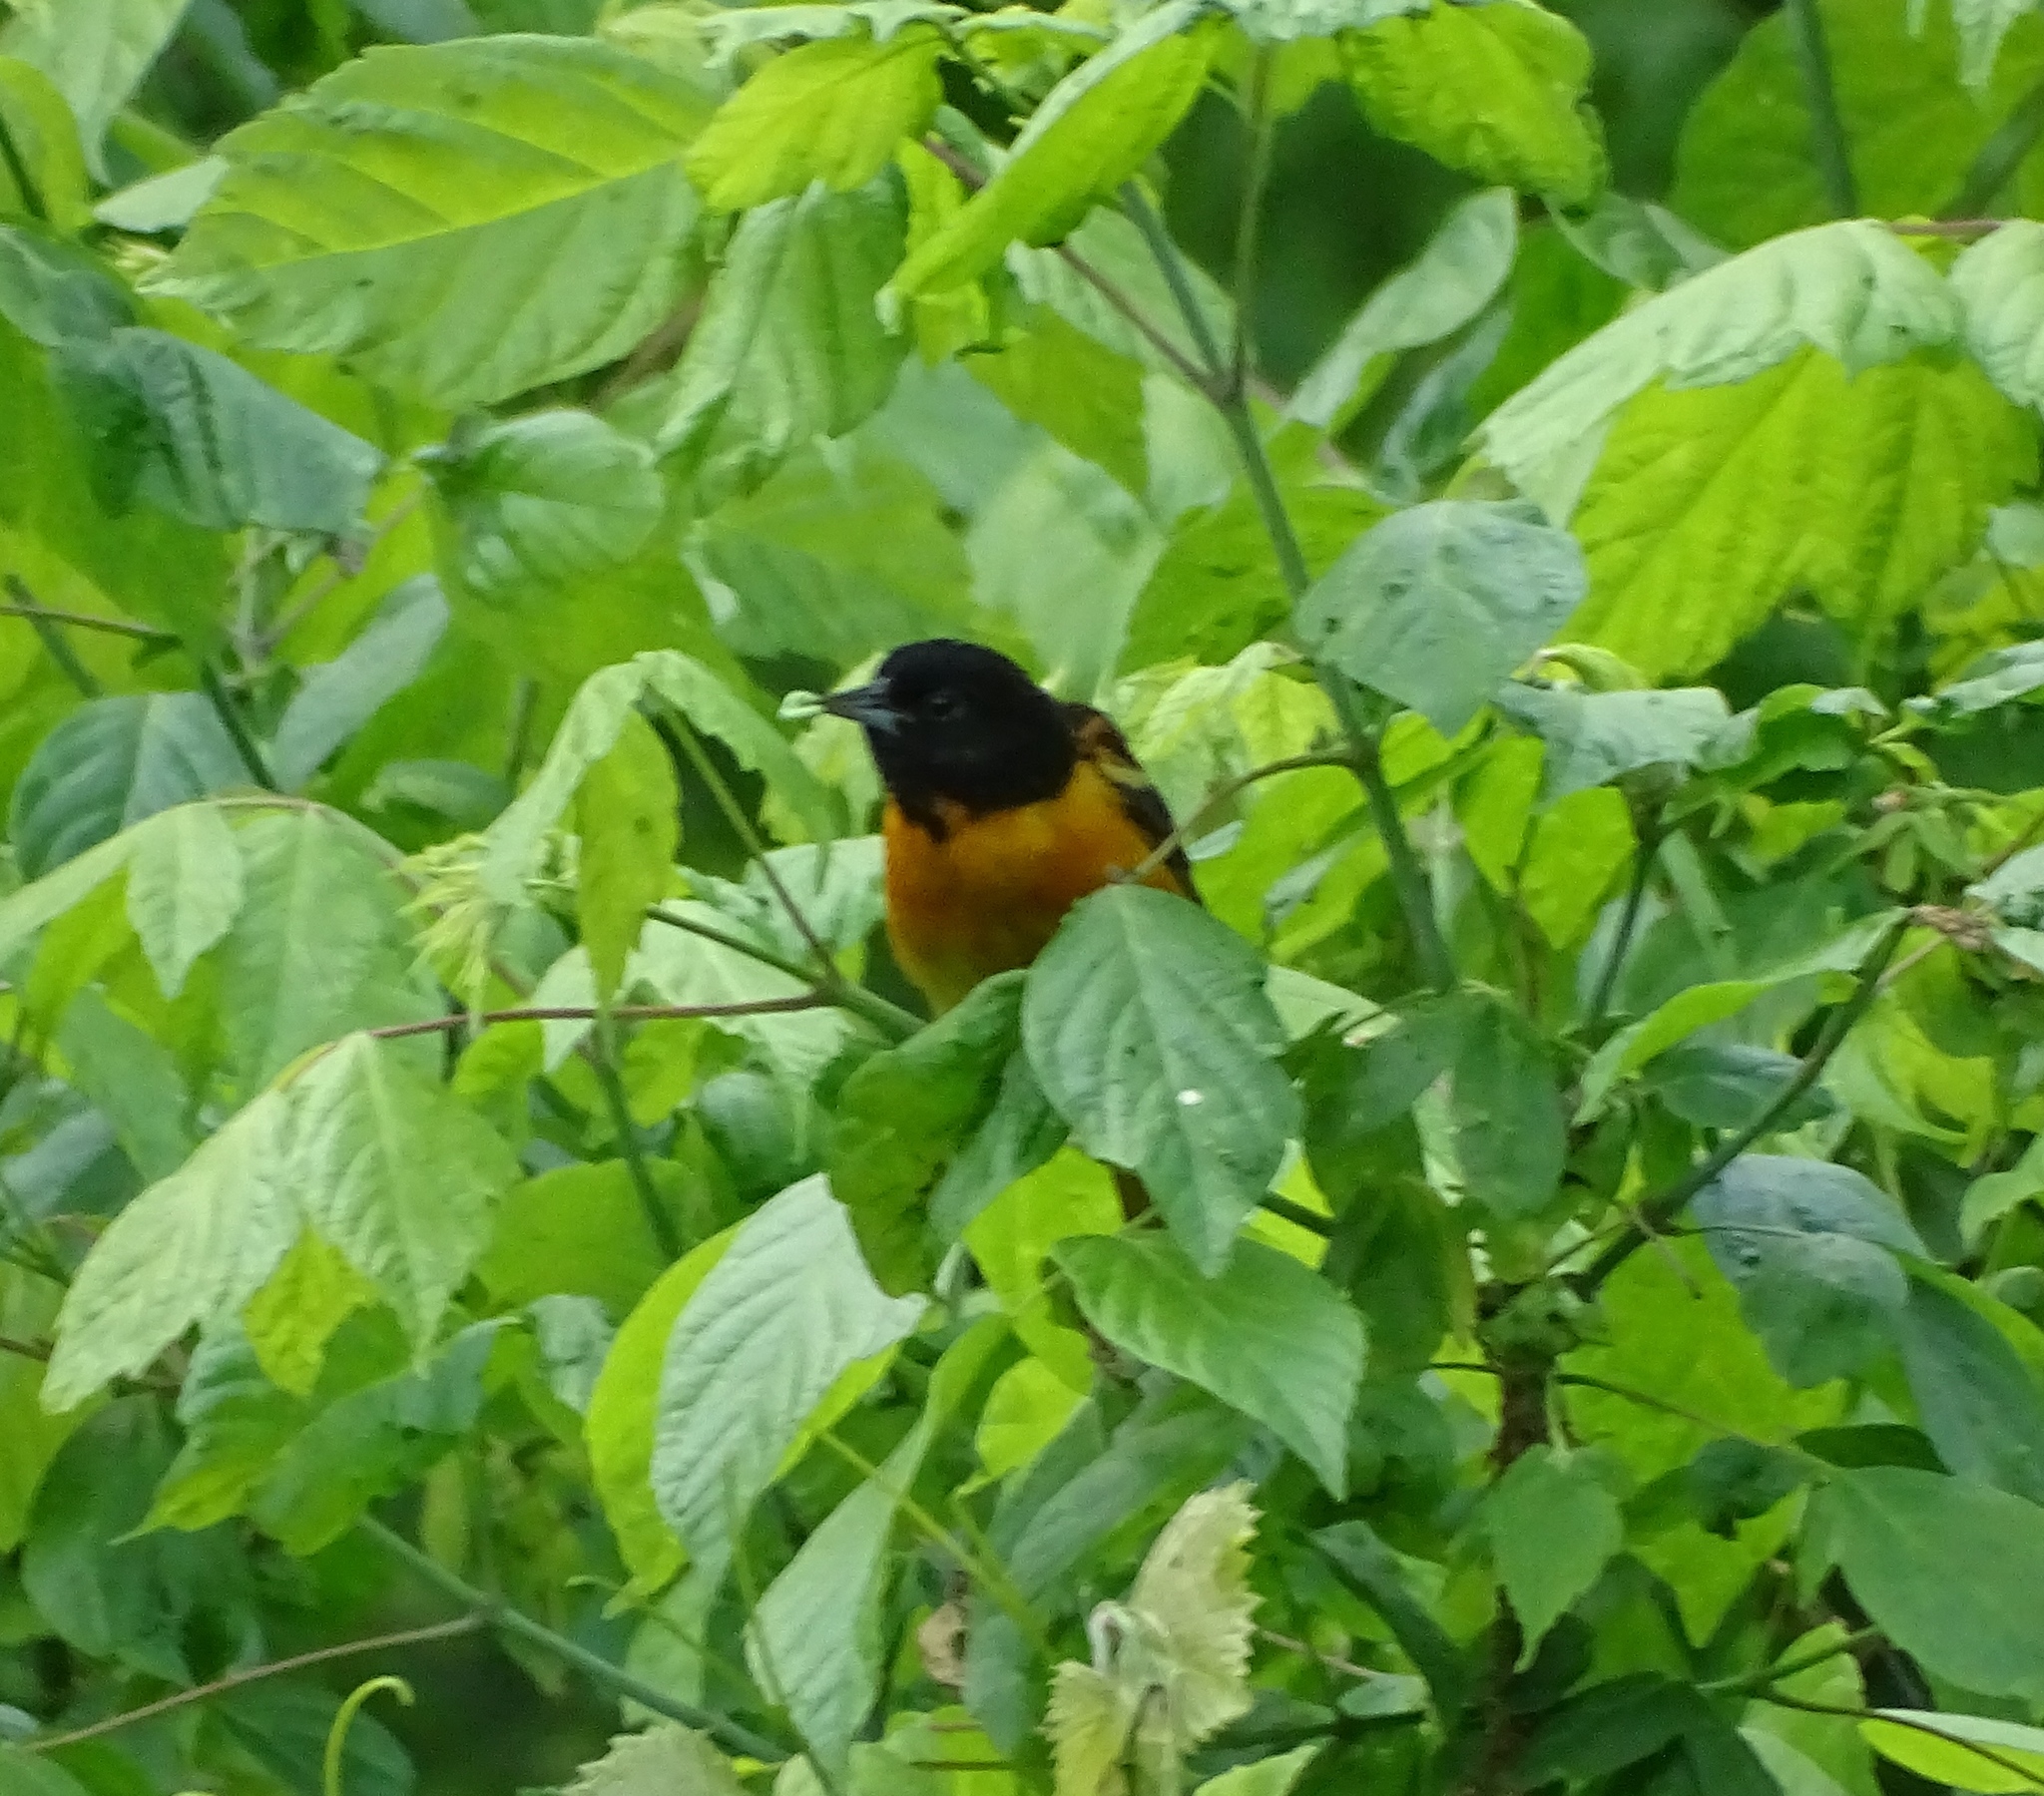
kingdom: Animalia
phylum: Chordata
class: Aves
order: Passeriformes
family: Icteridae
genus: Icterus
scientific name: Icterus galbula
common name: Baltimore oriole
